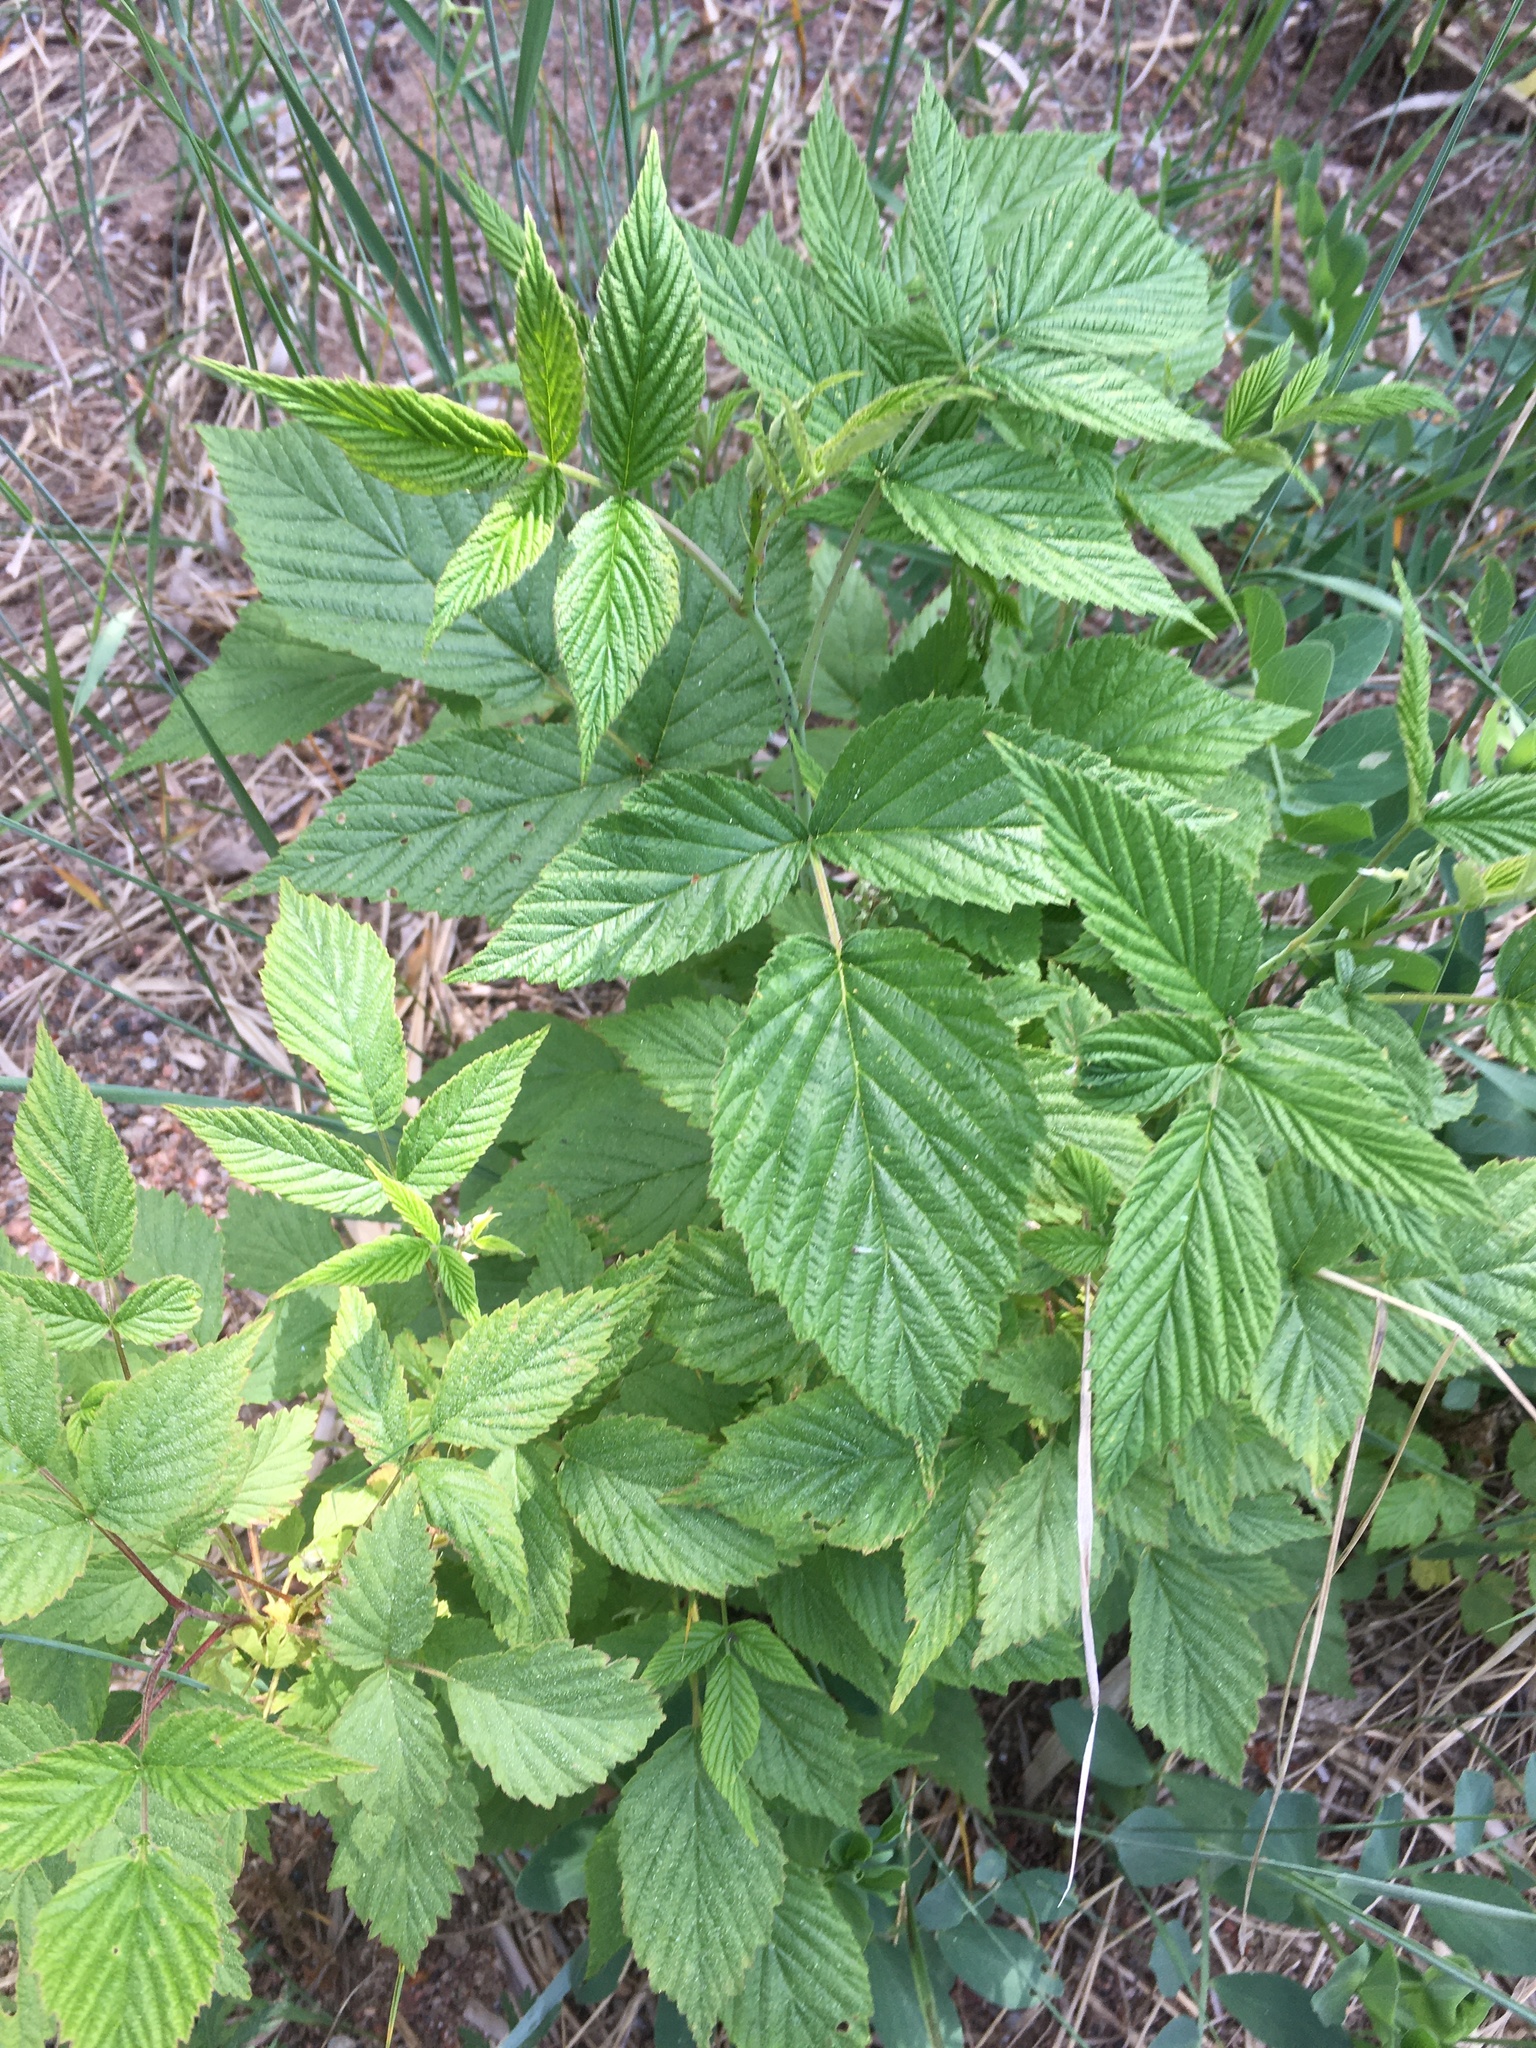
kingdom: Plantae
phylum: Tracheophyta
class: Magnoliopsida
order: Rosales
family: Rosaceae
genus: Rubus
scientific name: Rubus idaeus
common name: Raspberry
